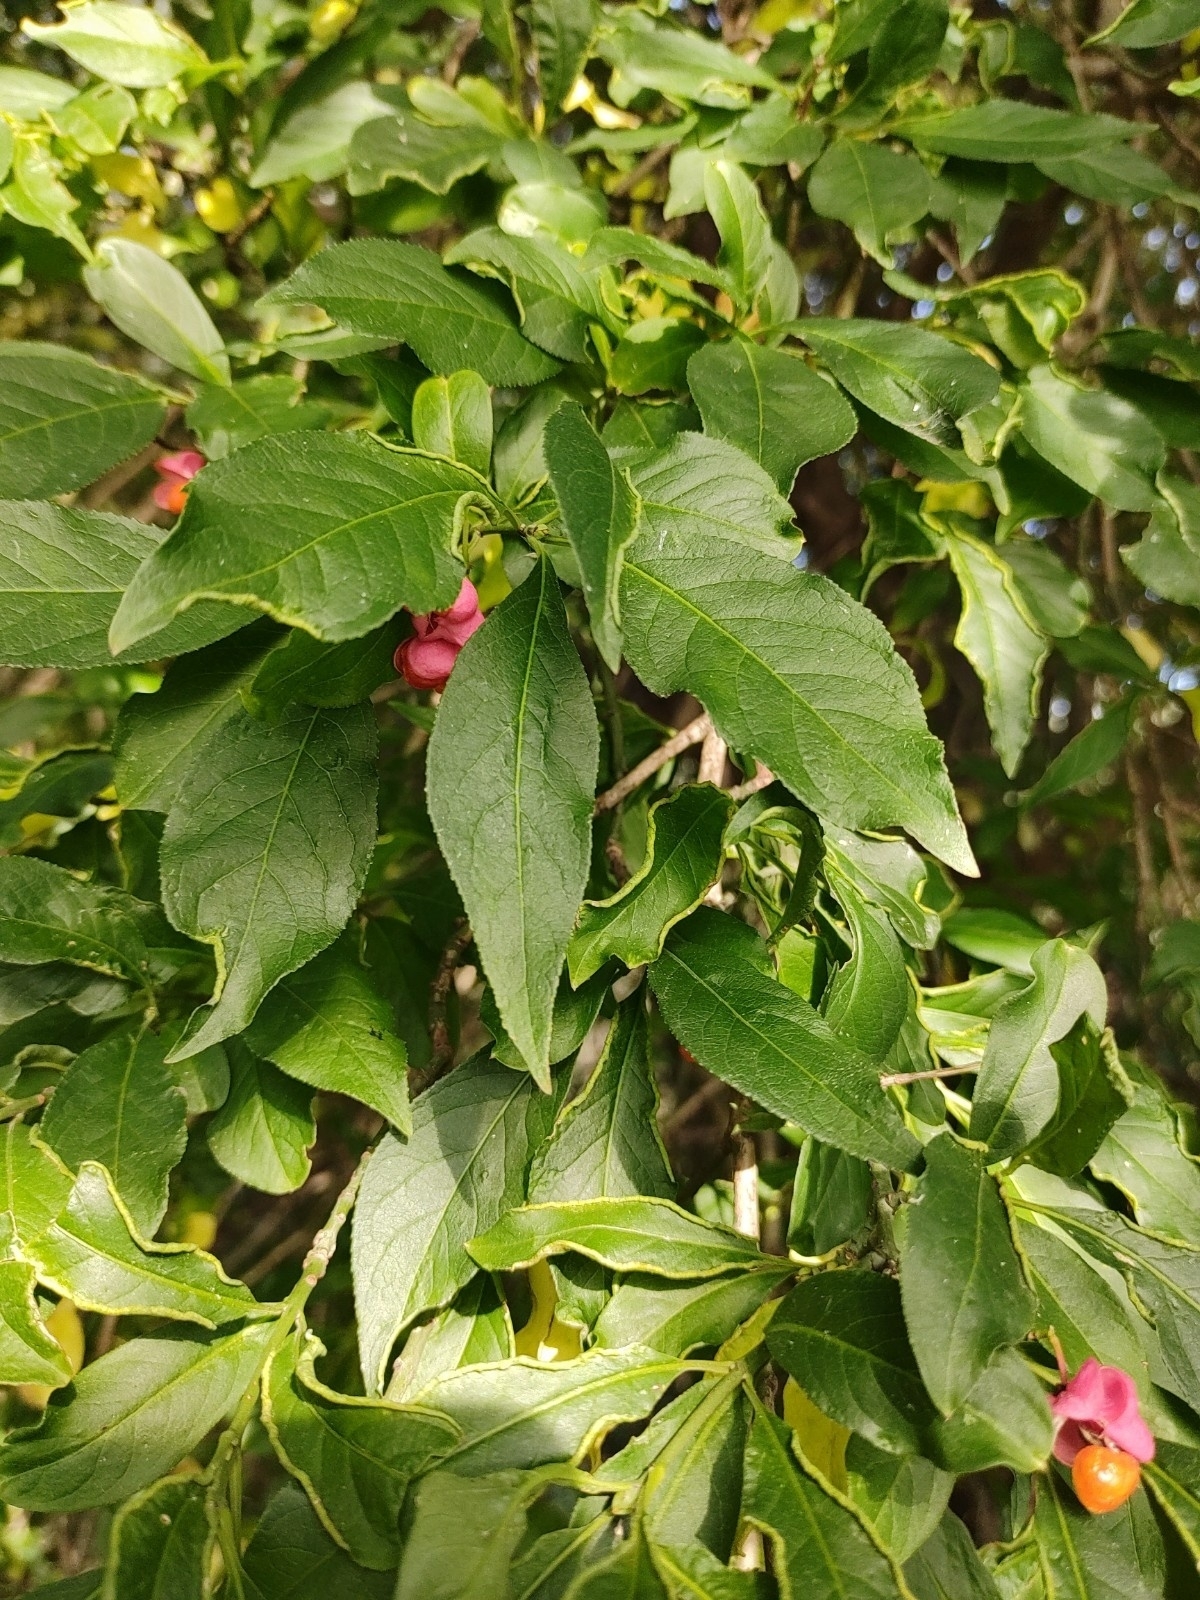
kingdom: Plantae
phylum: Tracheophyta
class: Magnoliopsida
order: Celastrales
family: Celastraceae
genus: Euonymus
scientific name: Euonymus europaeus
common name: Spindle
